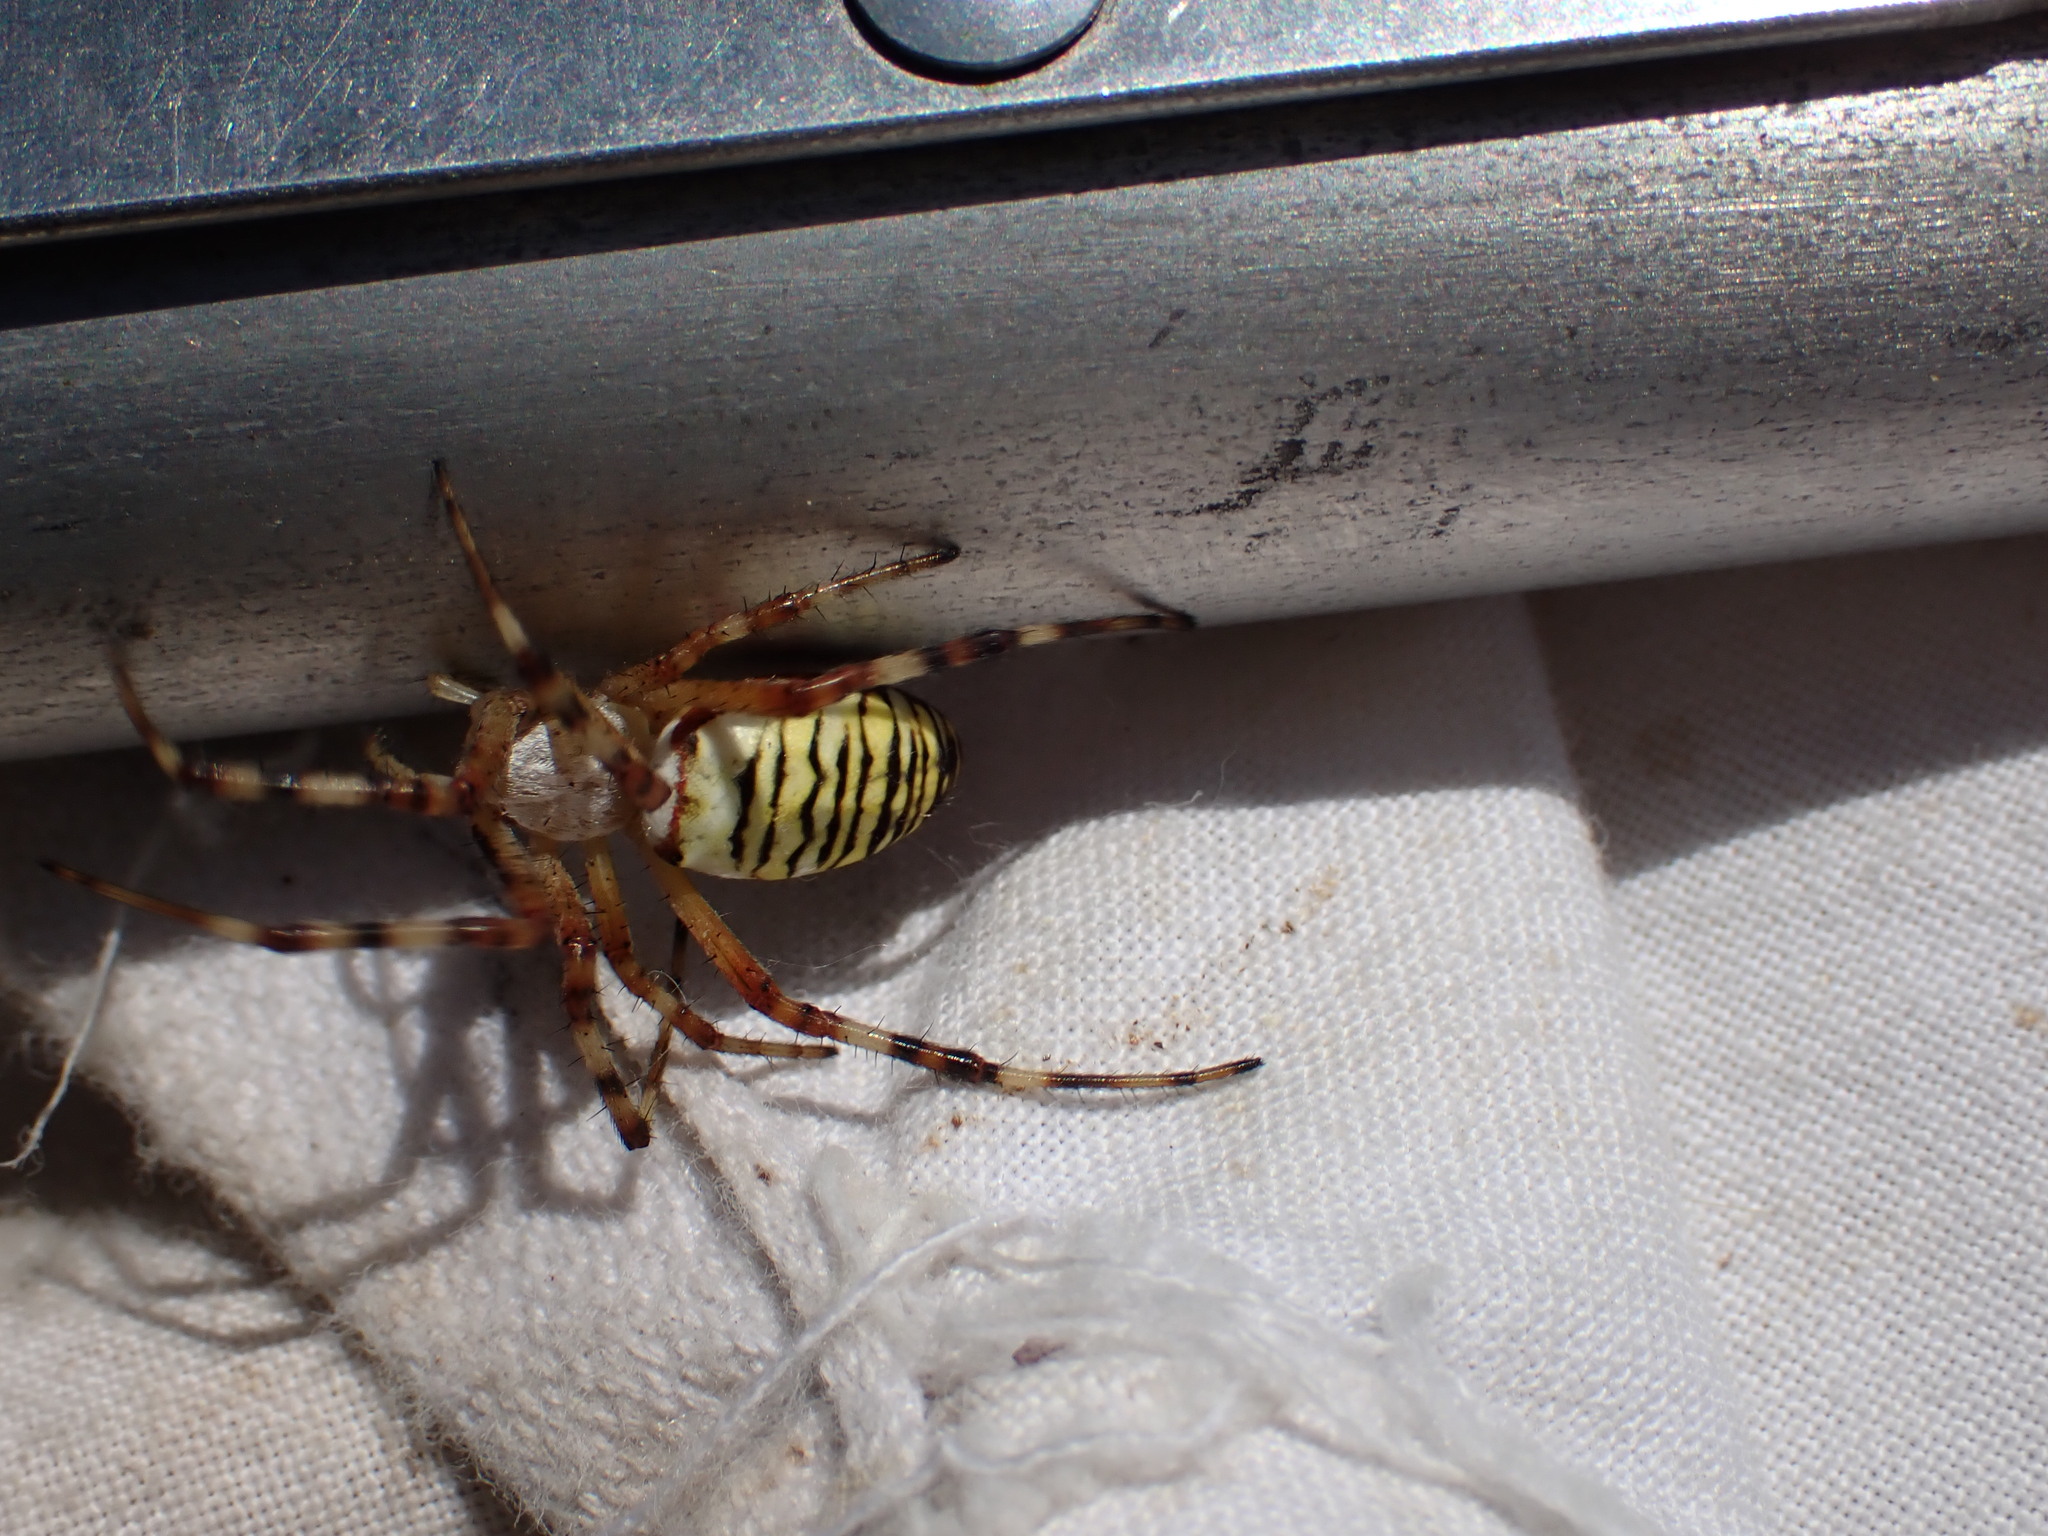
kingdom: Animalia
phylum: Arthropoda
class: Arachnida
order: Araneae
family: Araneidae
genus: Argiope
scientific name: Argiope bruennichi
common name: Wasp spider
